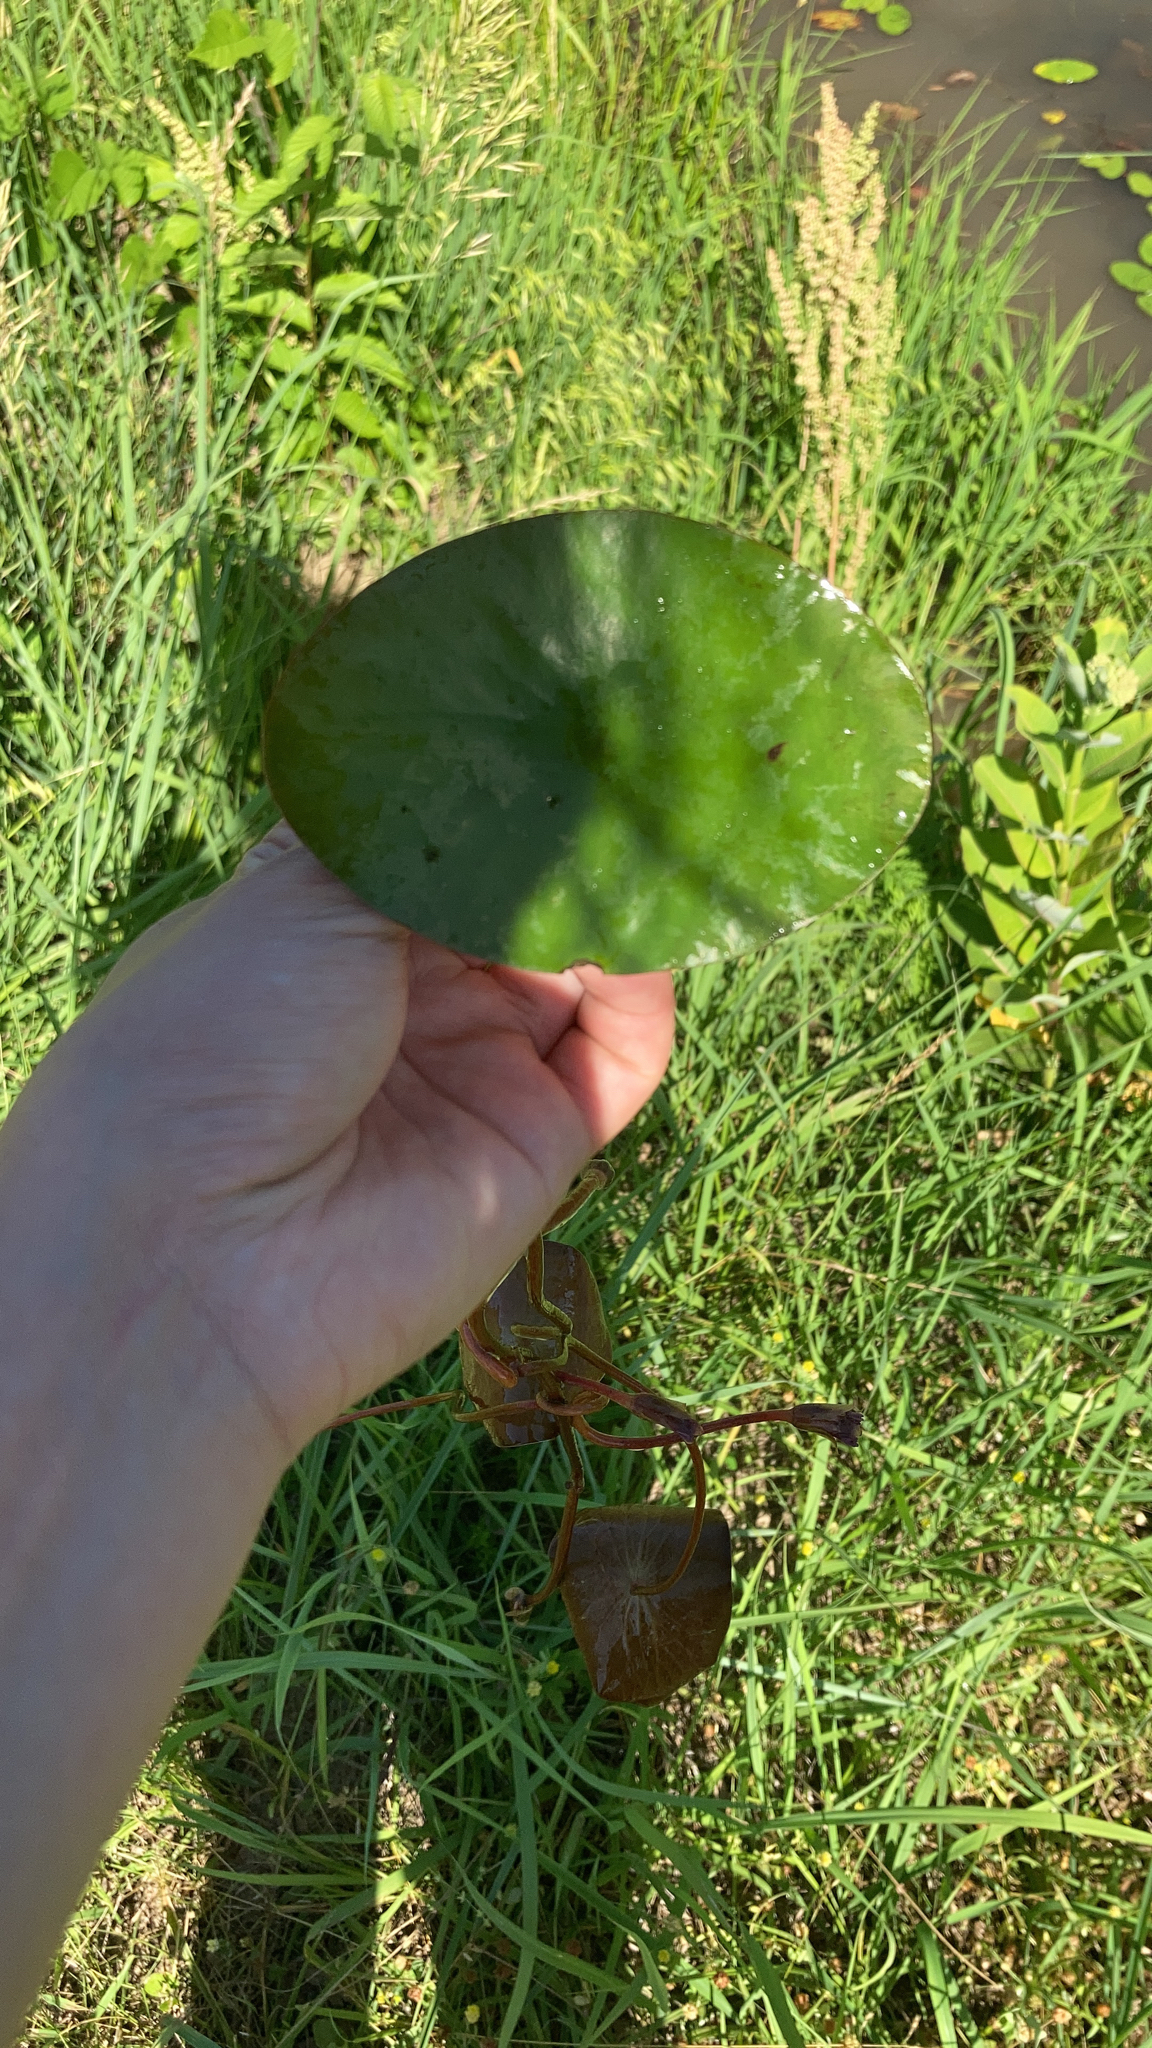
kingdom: Plantae
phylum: Tracheophyta
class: Magnoliopsida
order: Nymphaeales
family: Cabombaceae
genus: Brasenia
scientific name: Brasenia schreberi
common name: Water-shield
